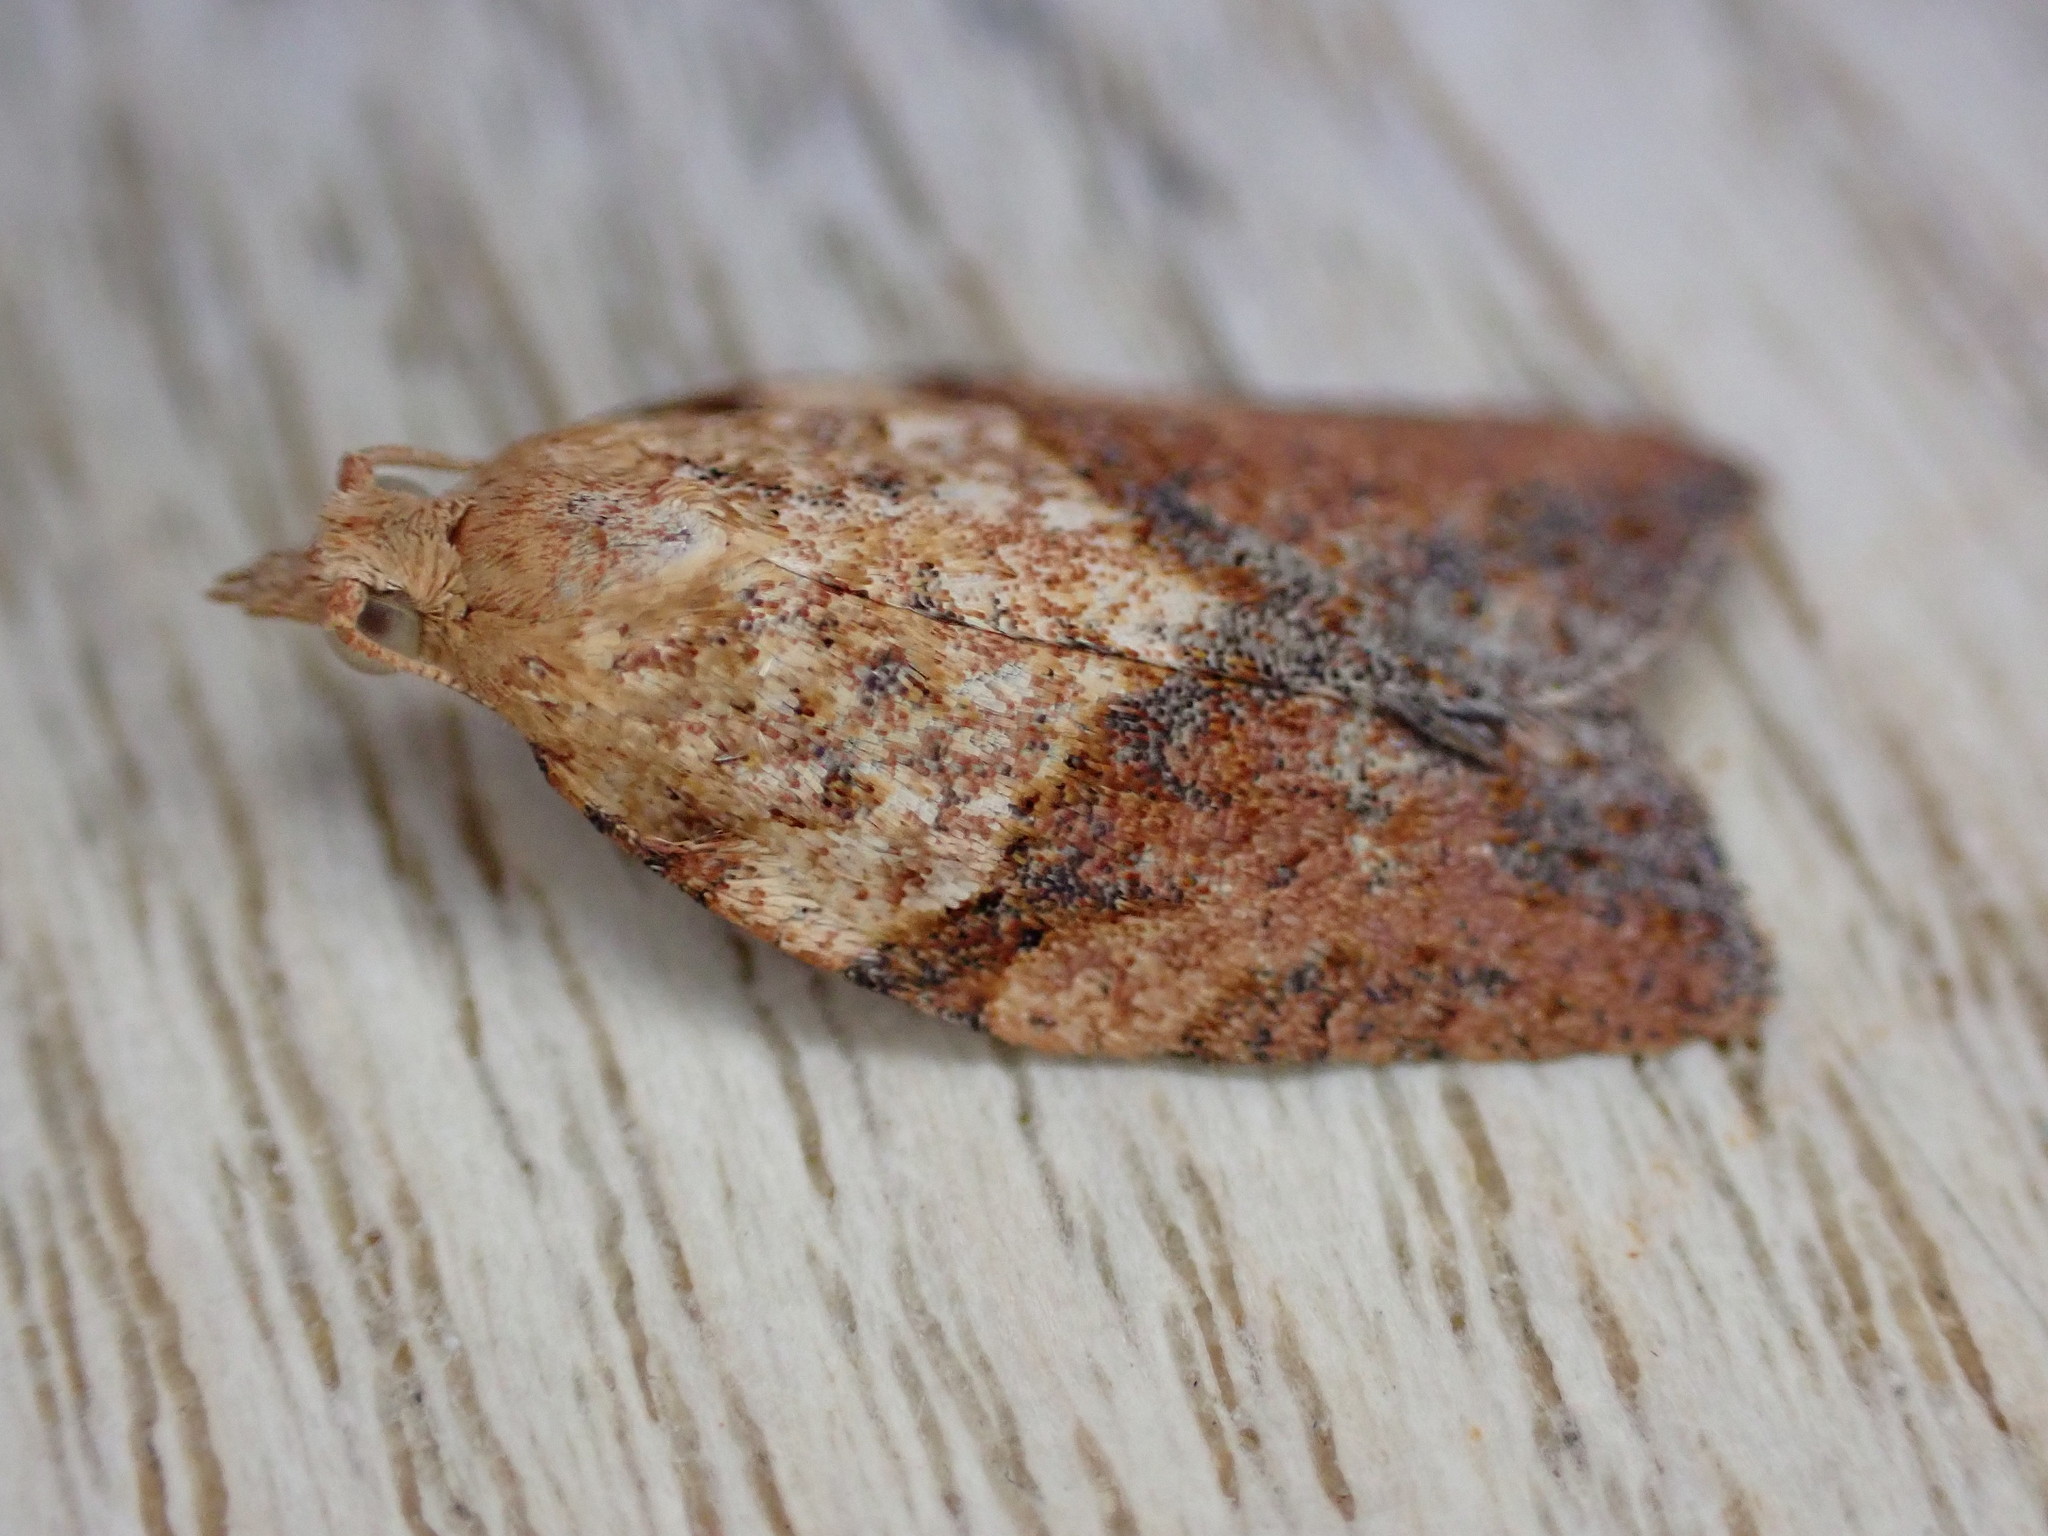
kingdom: Animalia
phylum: Arthropoda
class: Insecta
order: Lepidoptera
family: Tortricidae
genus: Epiphyas
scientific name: Epiphyas postvittana
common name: Light brown apple moth
